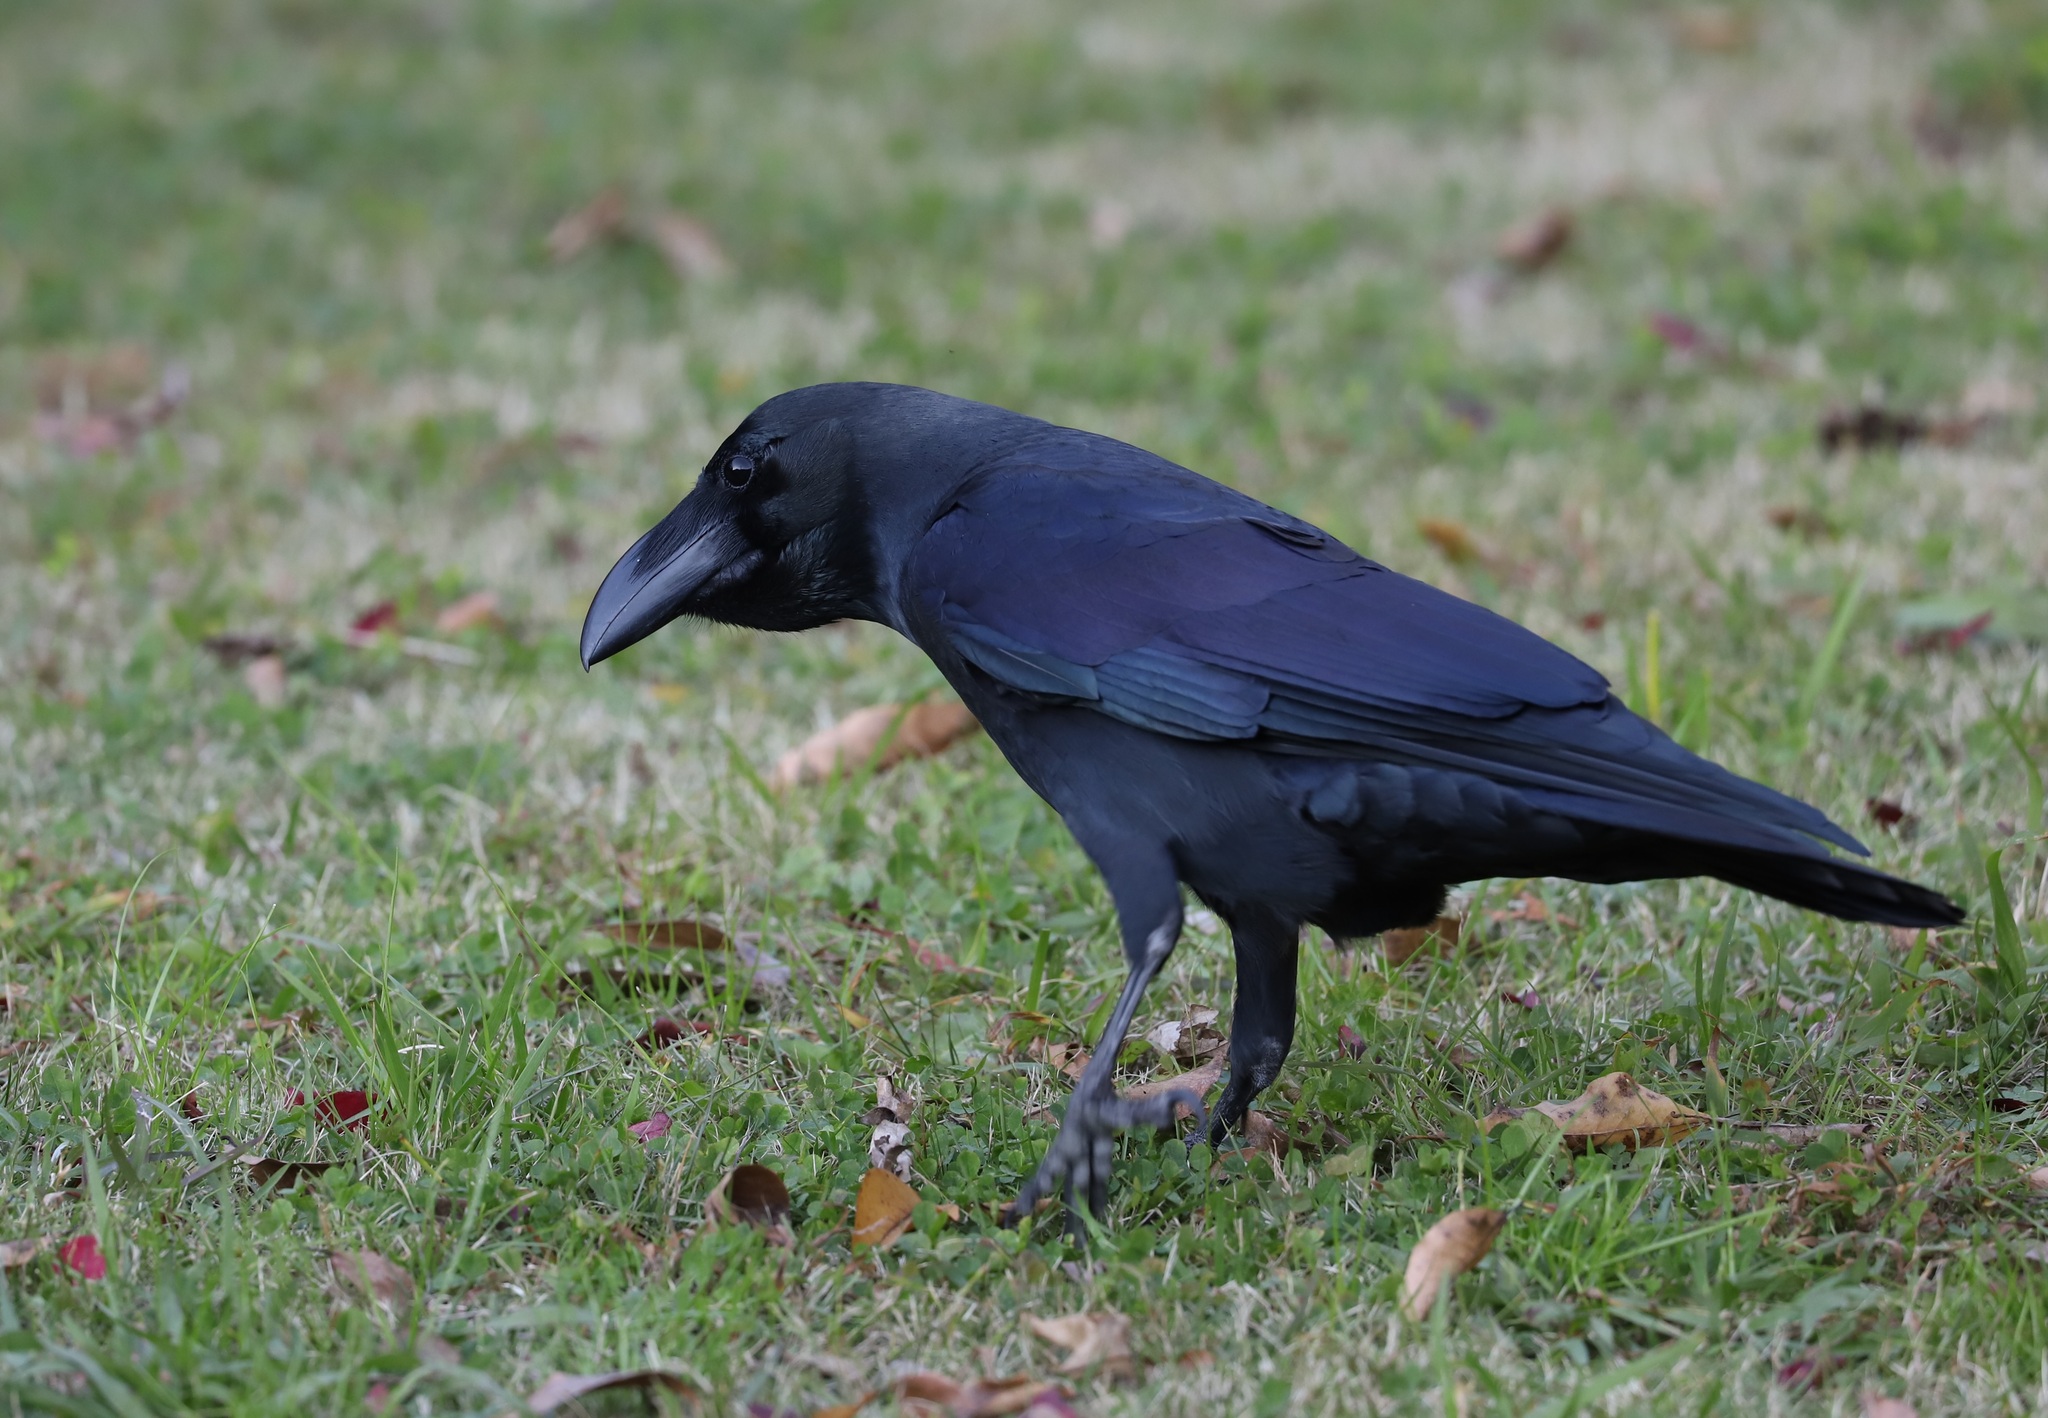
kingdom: Animalia
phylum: Chordata
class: Aves
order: Passeriformes
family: Corvidae
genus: Corvus
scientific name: Corvus macrorhynchos
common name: Large-billed crow
